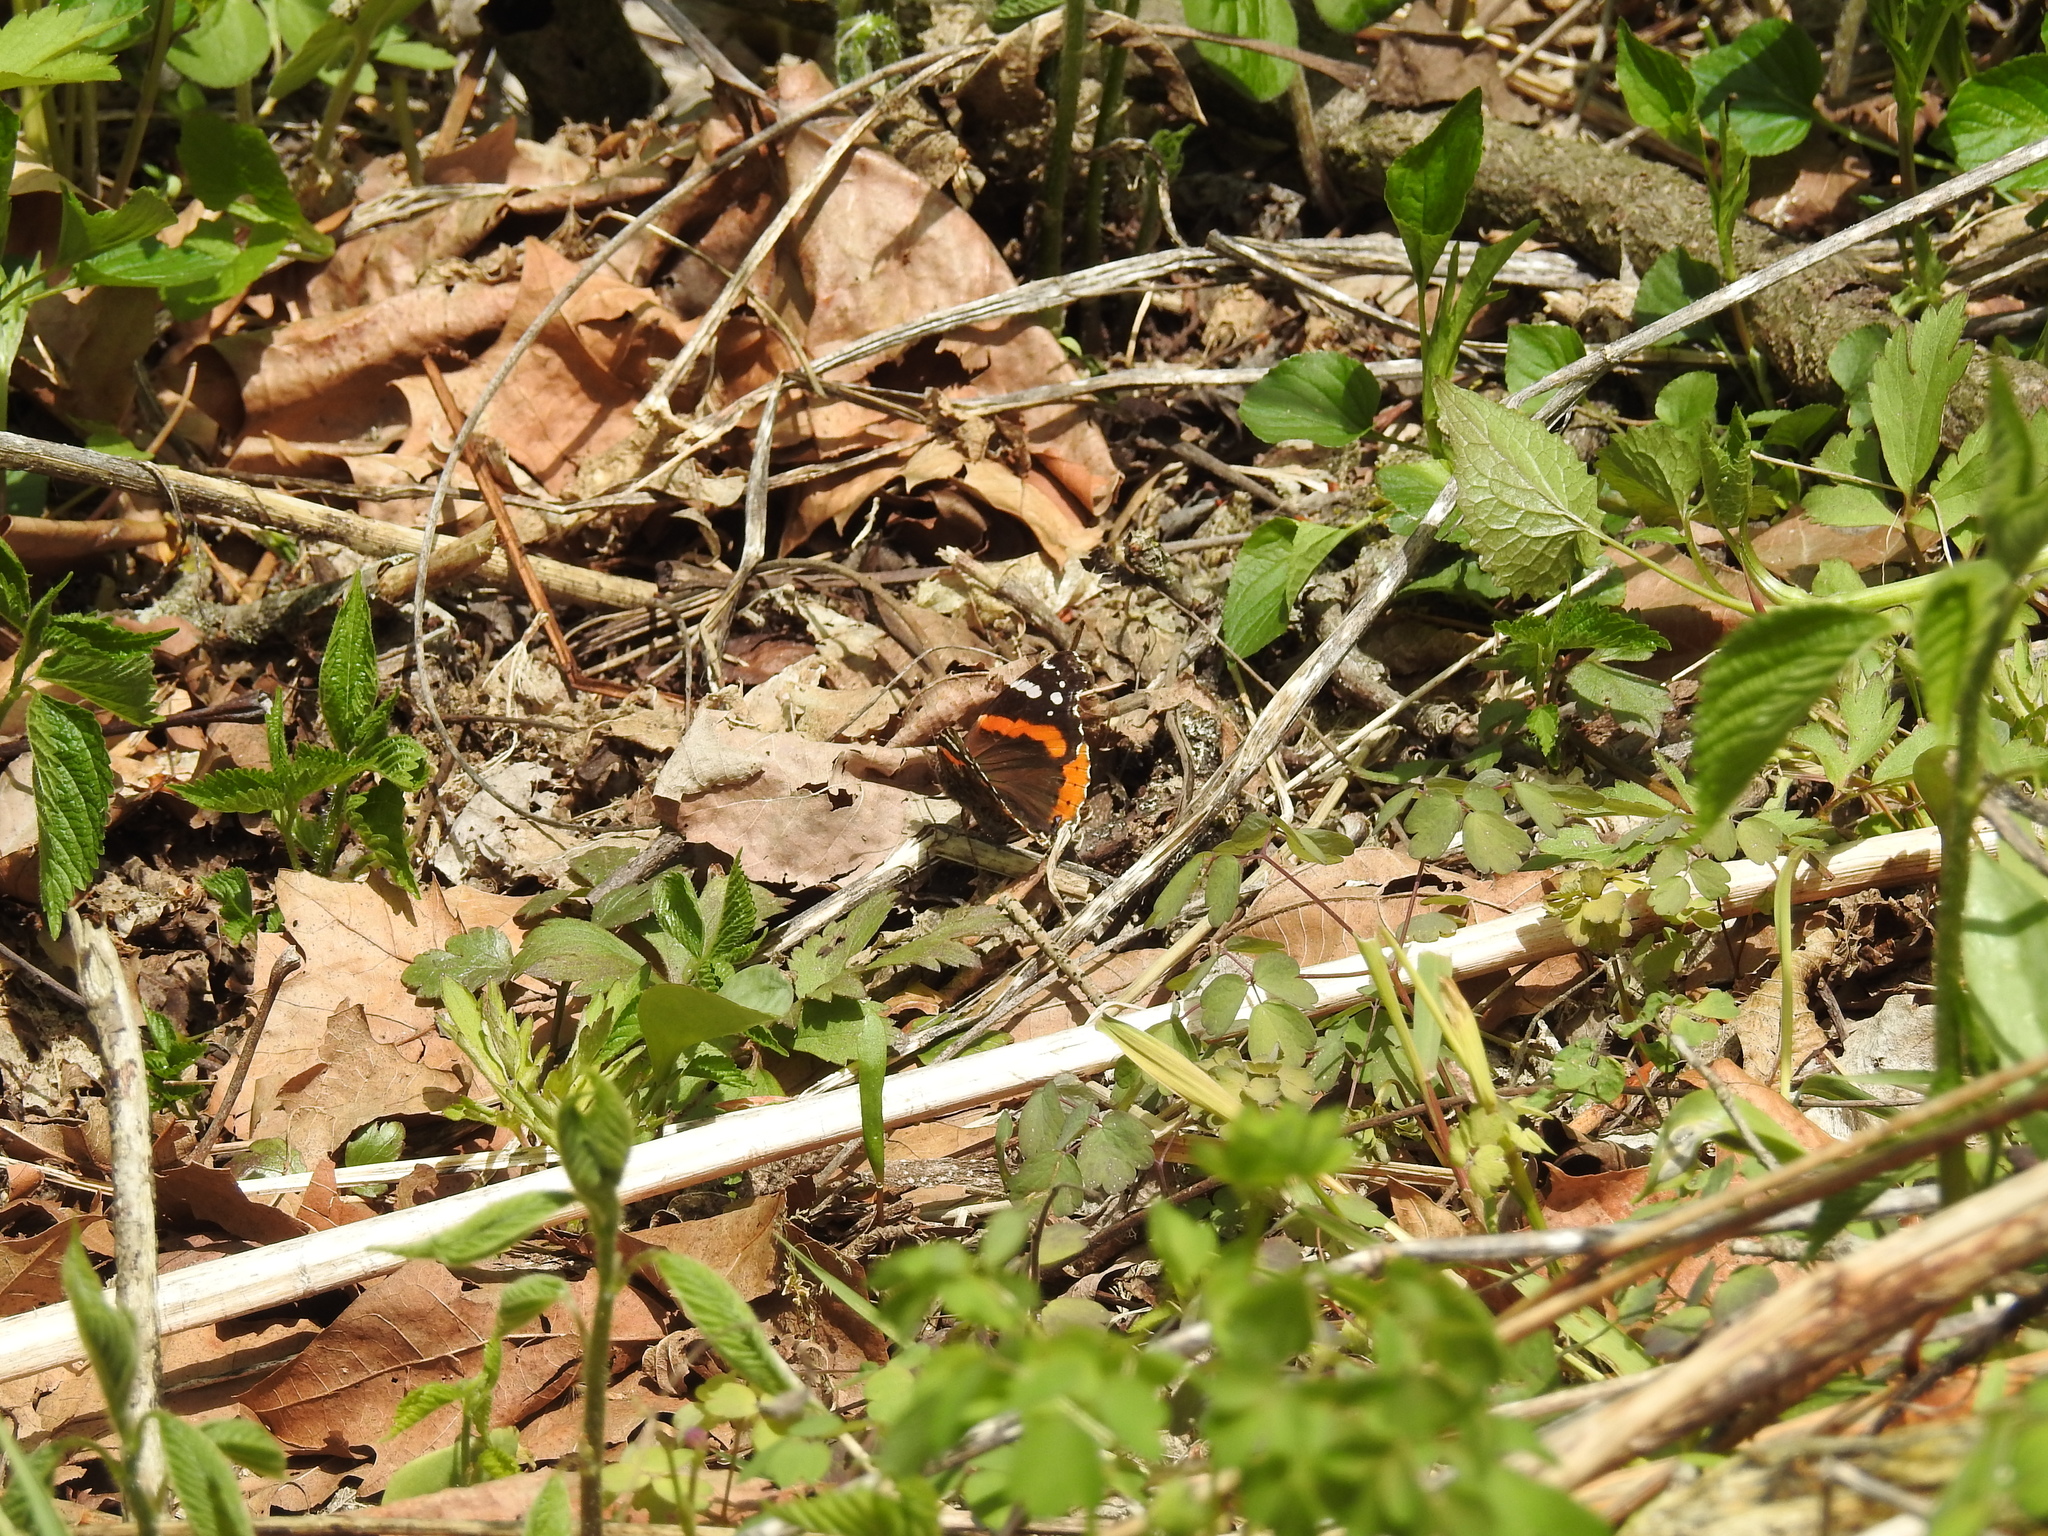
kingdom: Animalia
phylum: Arthropoda
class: Insecta
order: Lepidoptera
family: Nymphalidae
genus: Vanessa
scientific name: Vanessa atalanta
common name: Red admiral
